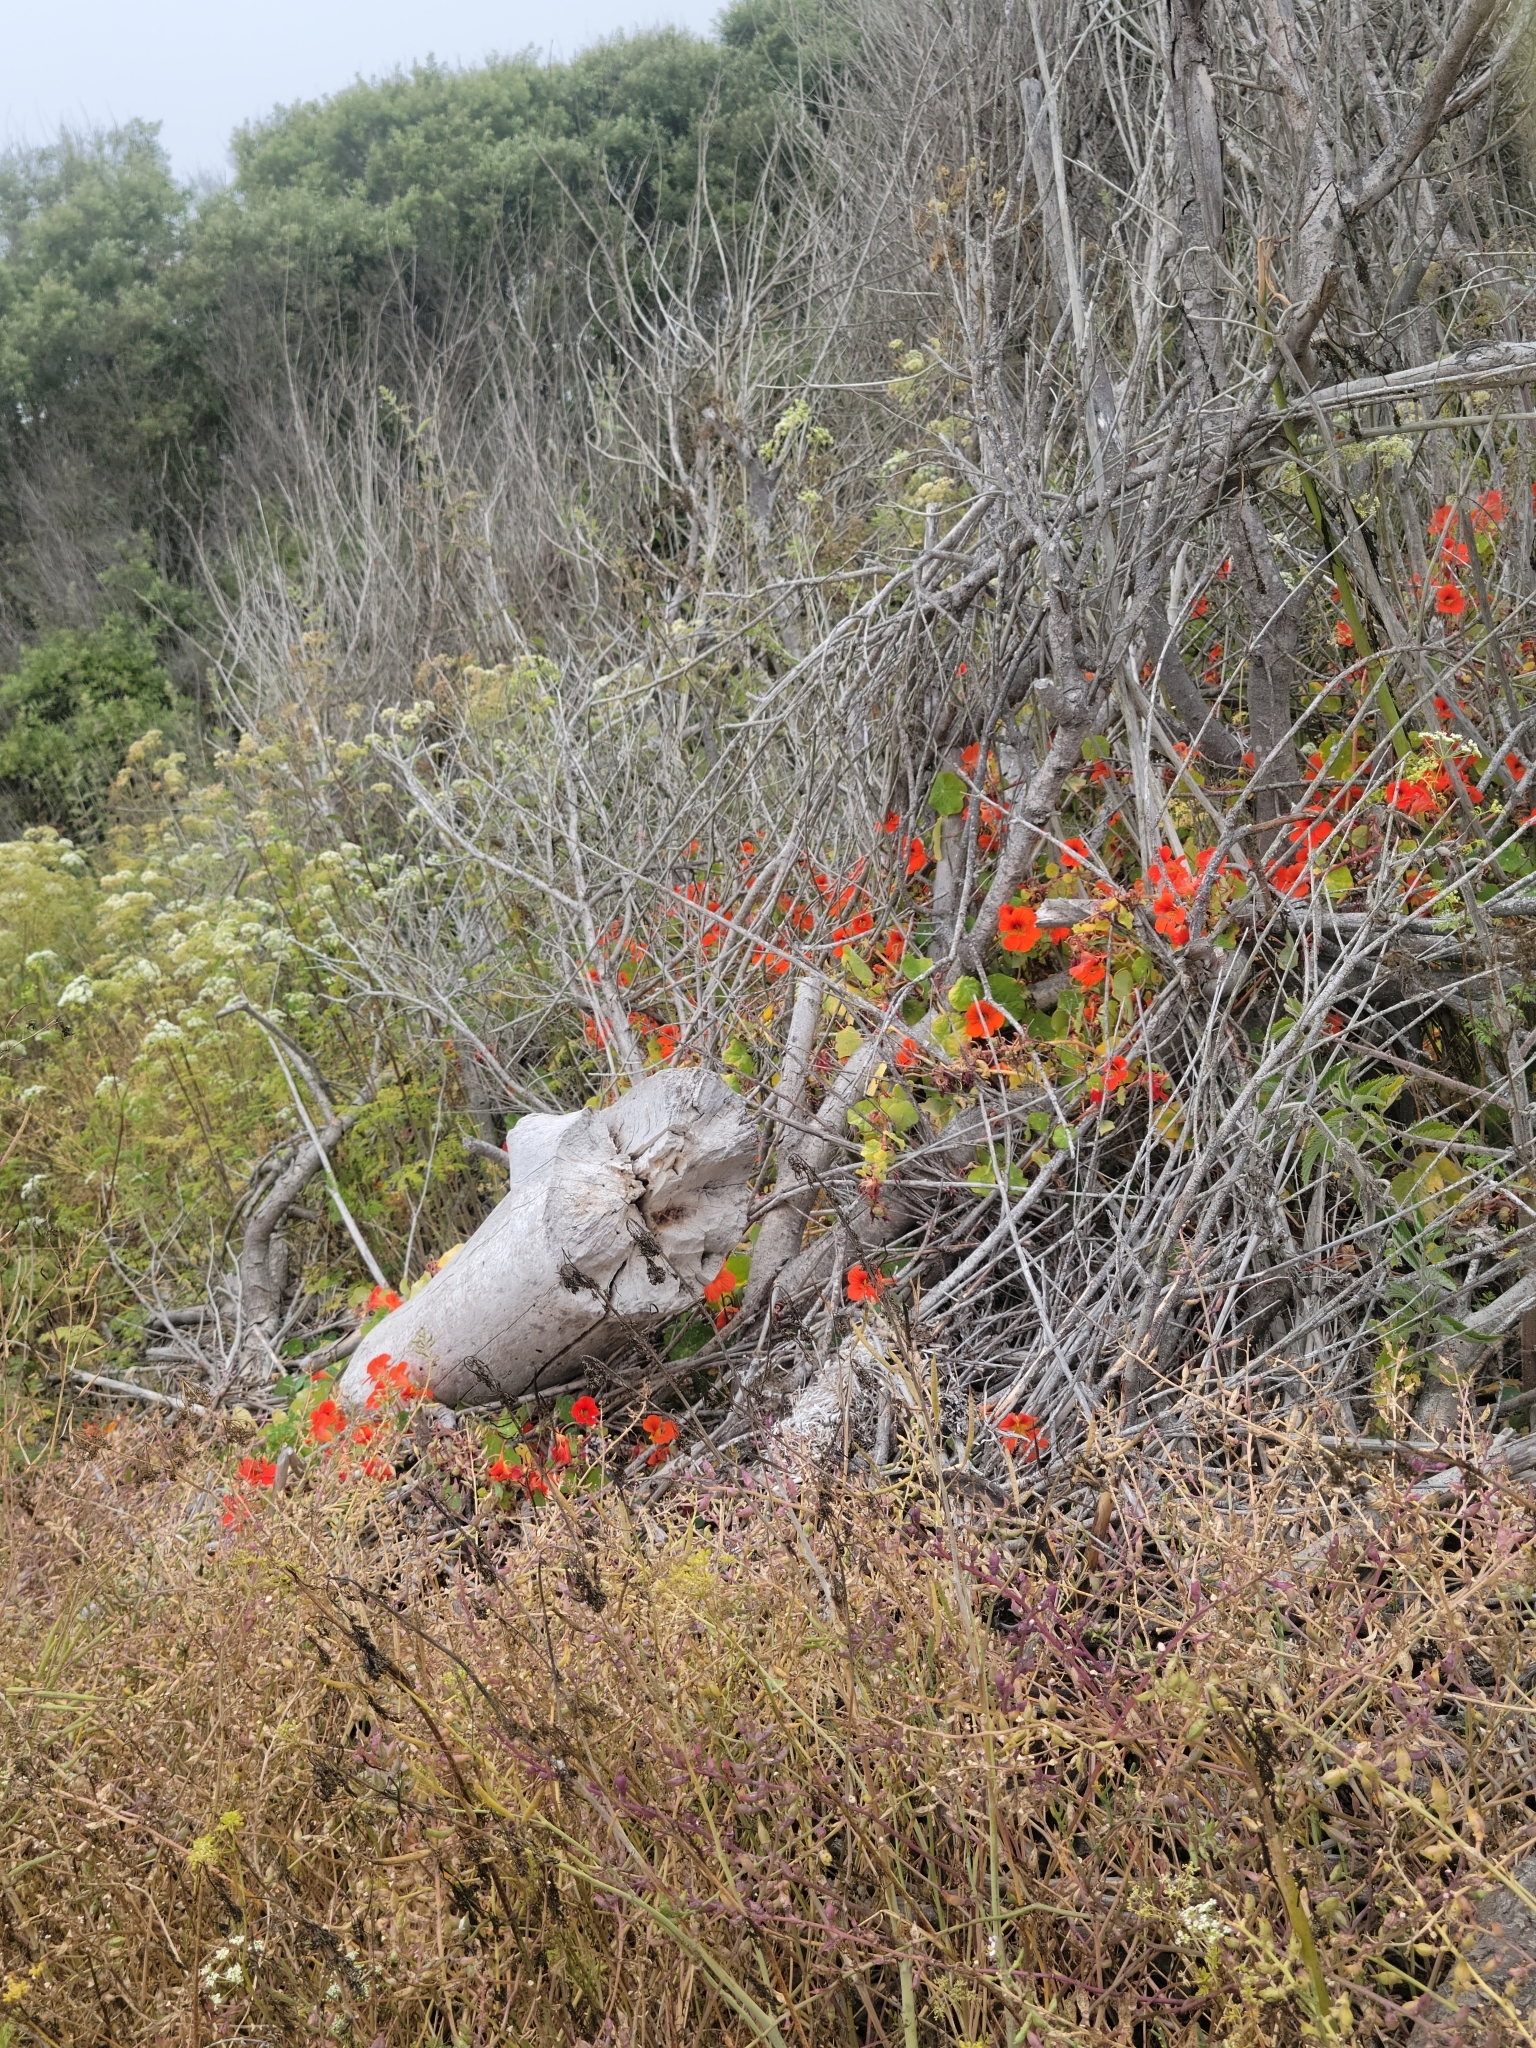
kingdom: Plantae
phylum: Tracheophyta
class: Magnoliopsida
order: Brassicales
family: Tropaeolaceae
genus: Tropaeolum
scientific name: Tropaeolum majus
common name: Nasturtium
